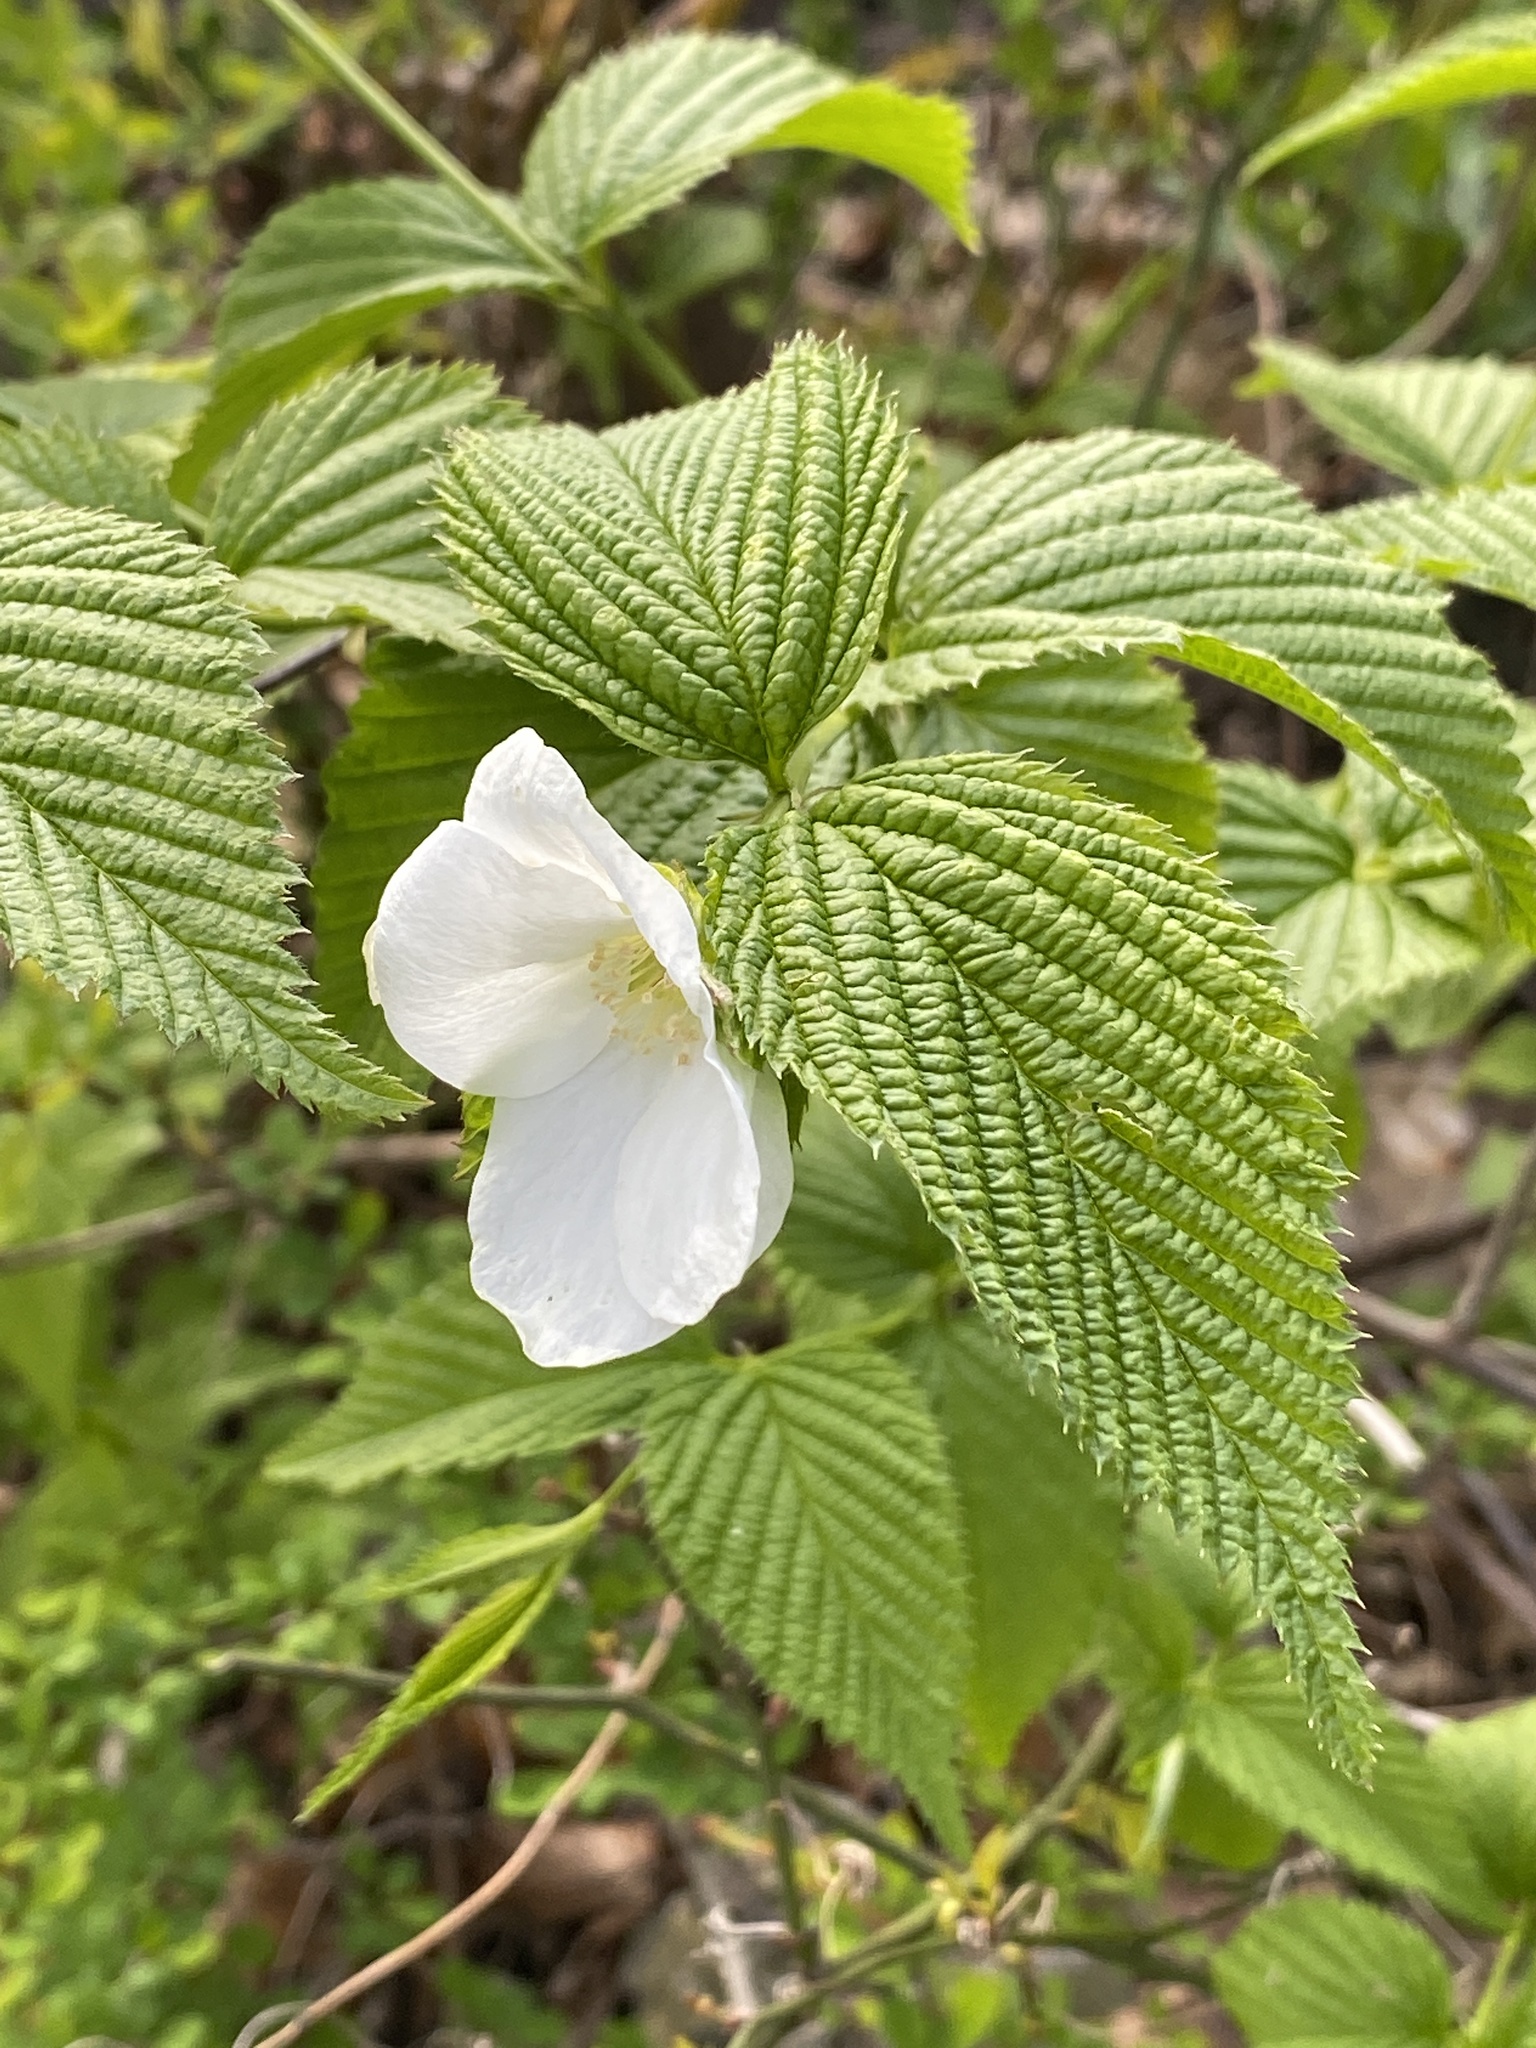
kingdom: Plantae
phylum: Tracheophyta
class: Magnoliopsida
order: Rosales
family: Rosaceae
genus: Rhodotypos
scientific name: Rhodotypos scandens
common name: Jetbead
